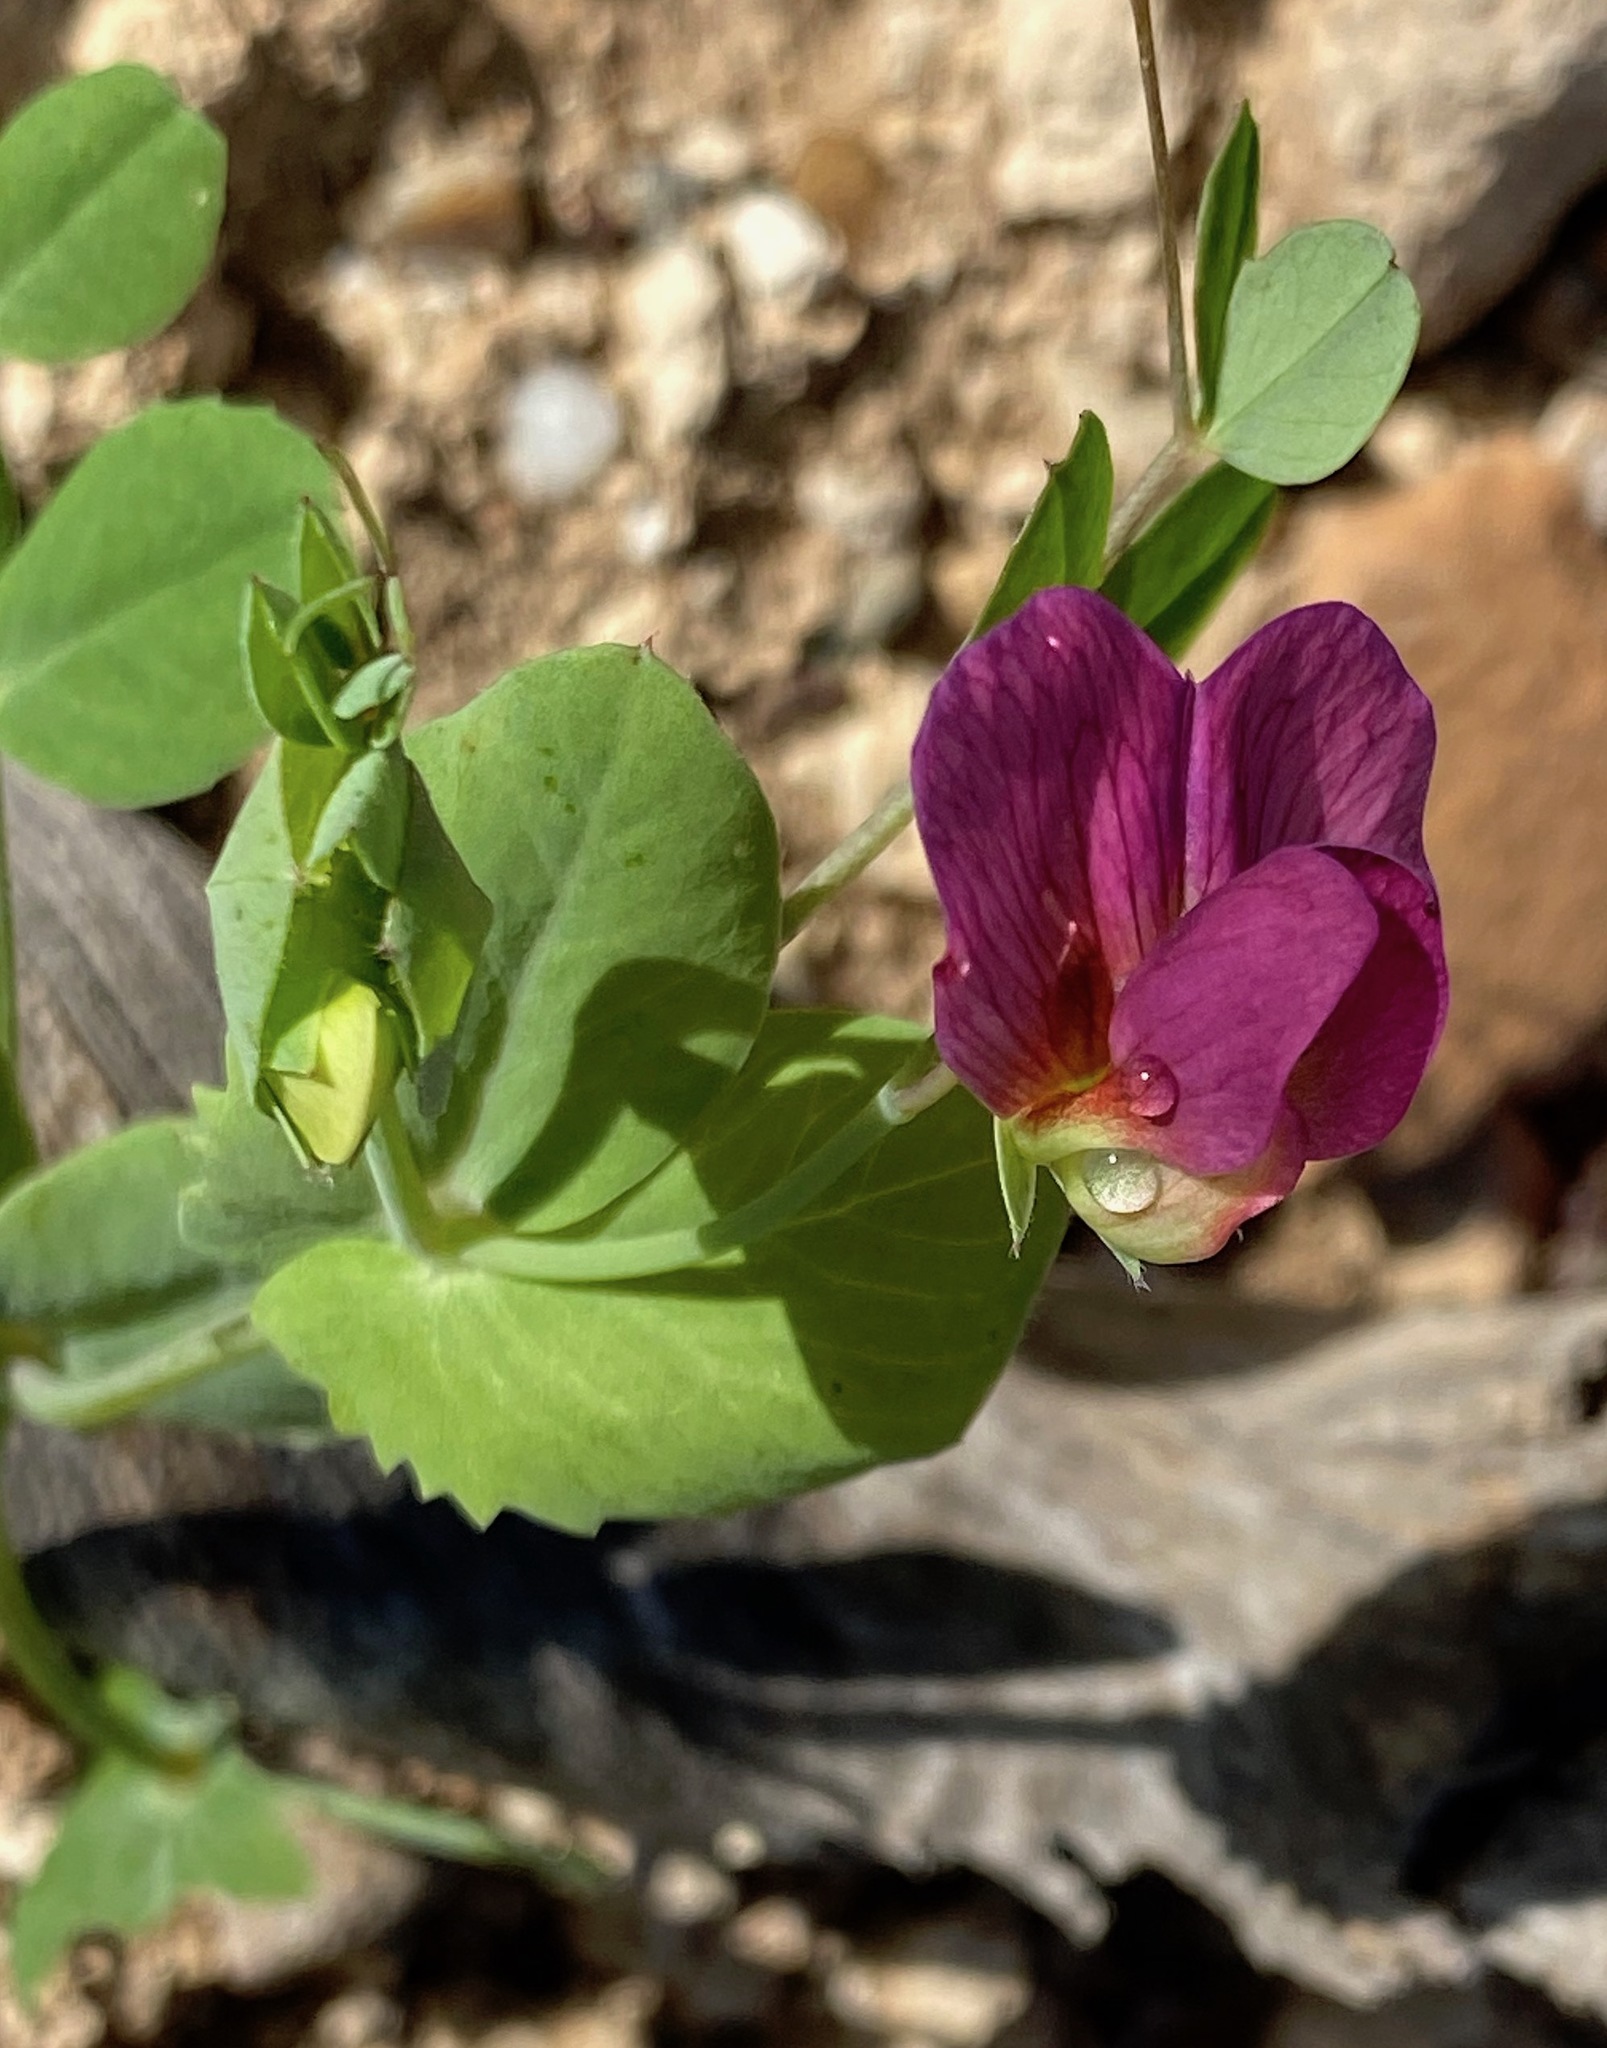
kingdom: Plantae
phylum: Tracheophyta
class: Magnoliopsida
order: Fabales
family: Fabaceae
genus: Lathyrus
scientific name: Lathyrus oleraceus
